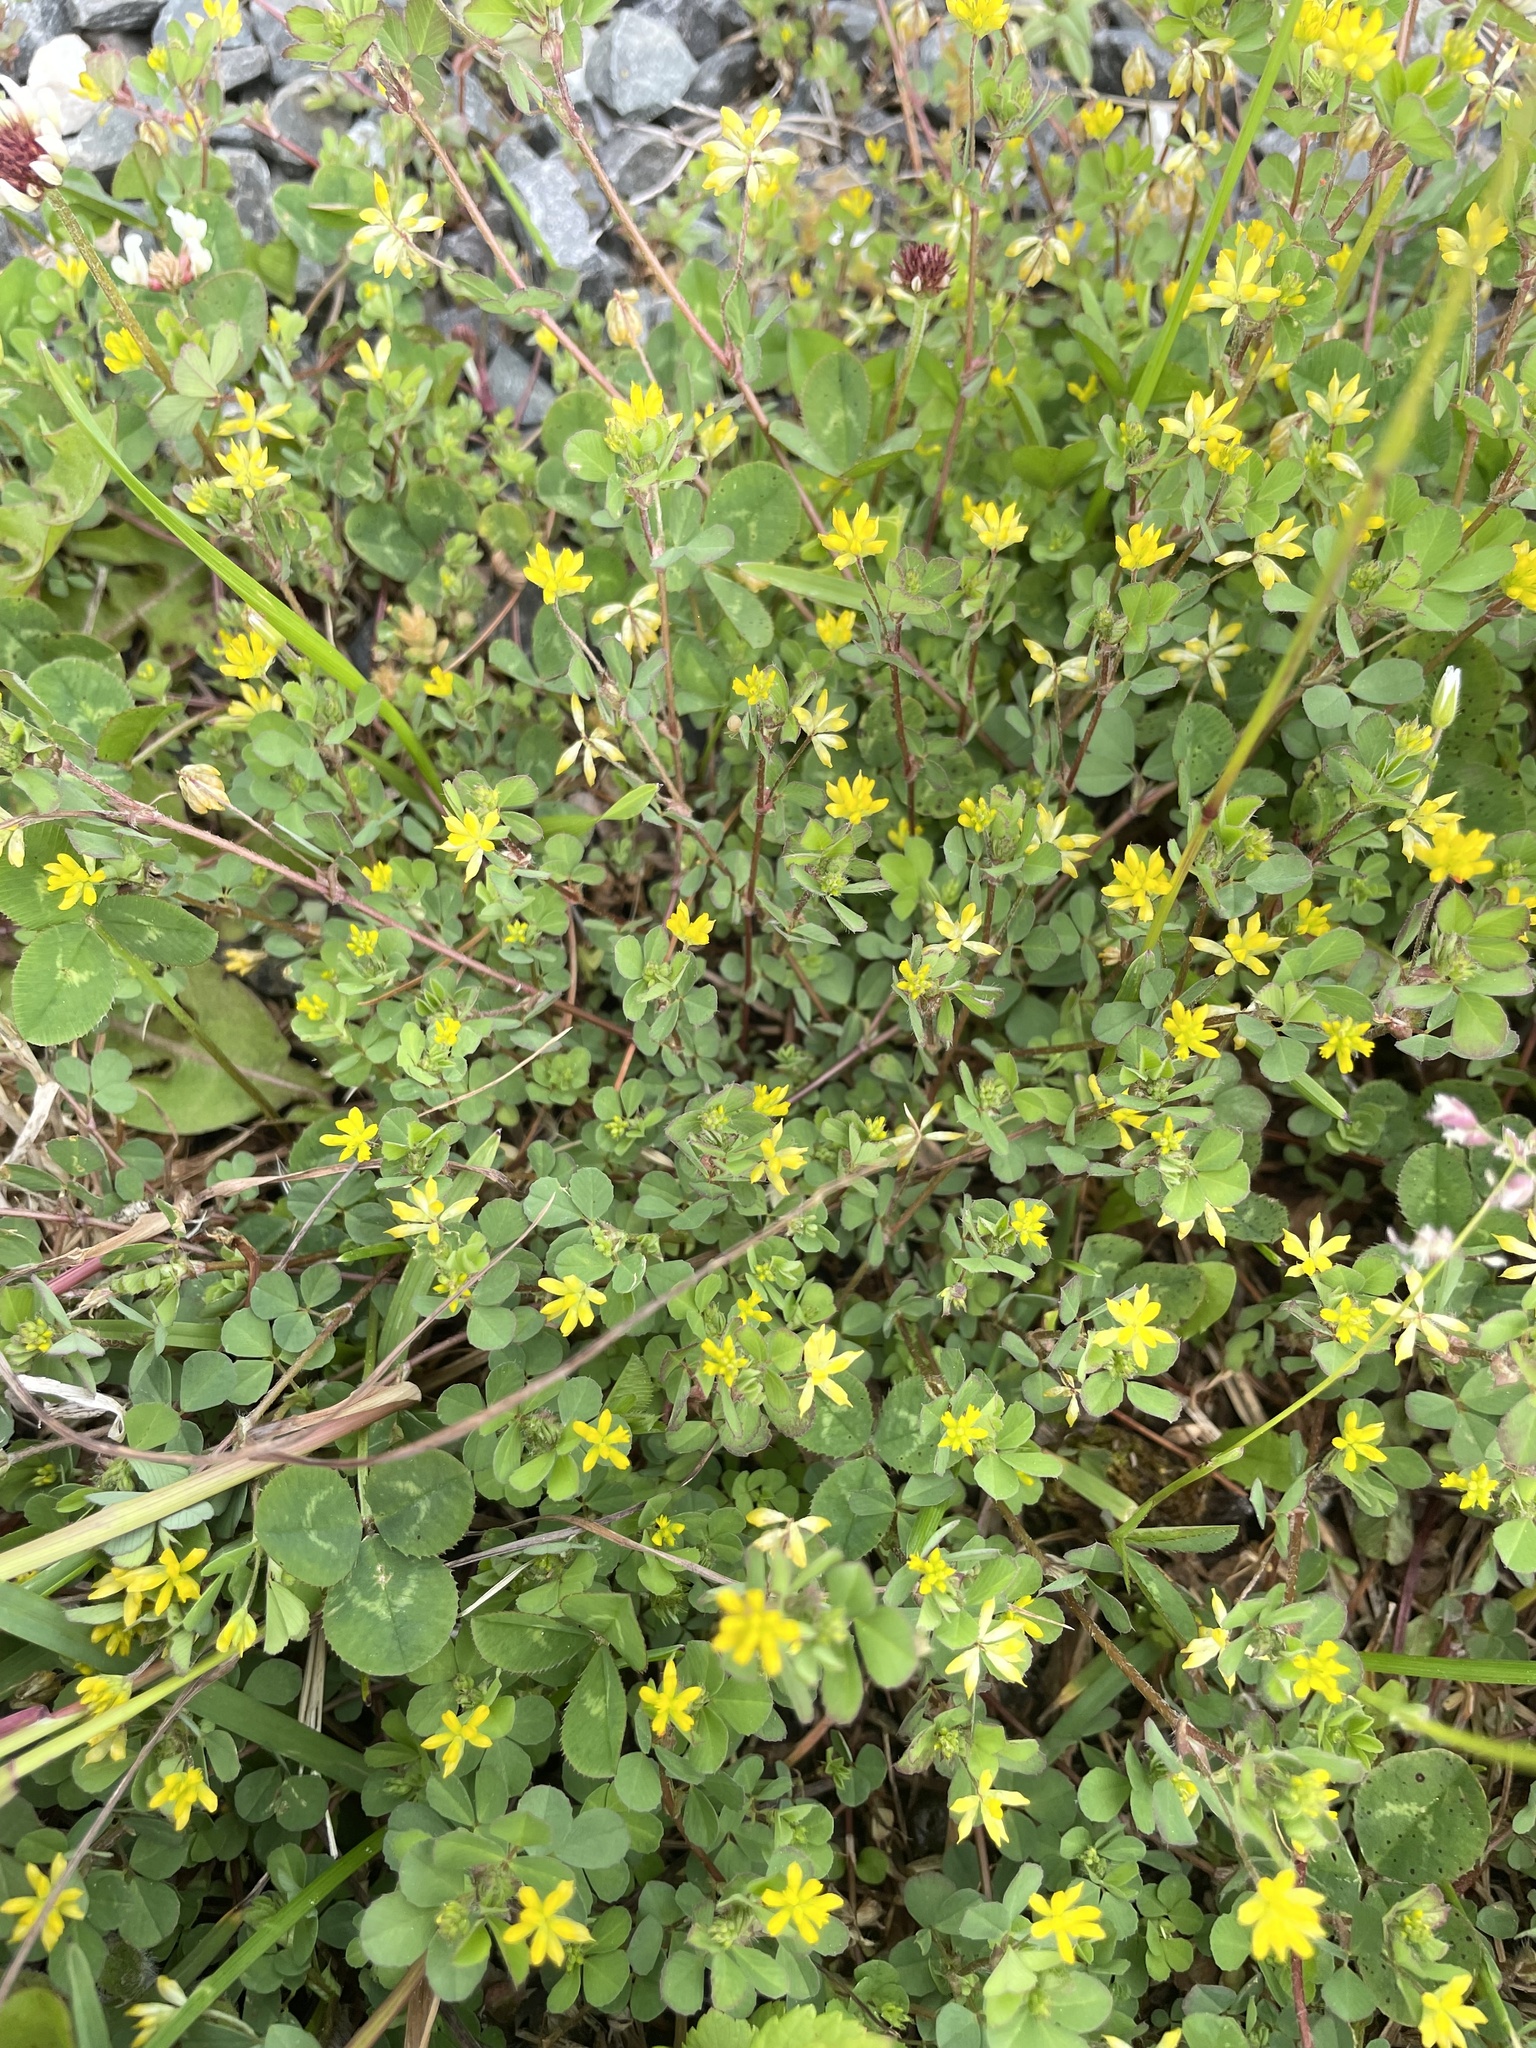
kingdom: Plantae
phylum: Tracheophyta
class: Magnoliopsida
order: Fabales
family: Fabaceae
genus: Trifolium
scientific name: Trifolium dubium
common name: Suckling clover
